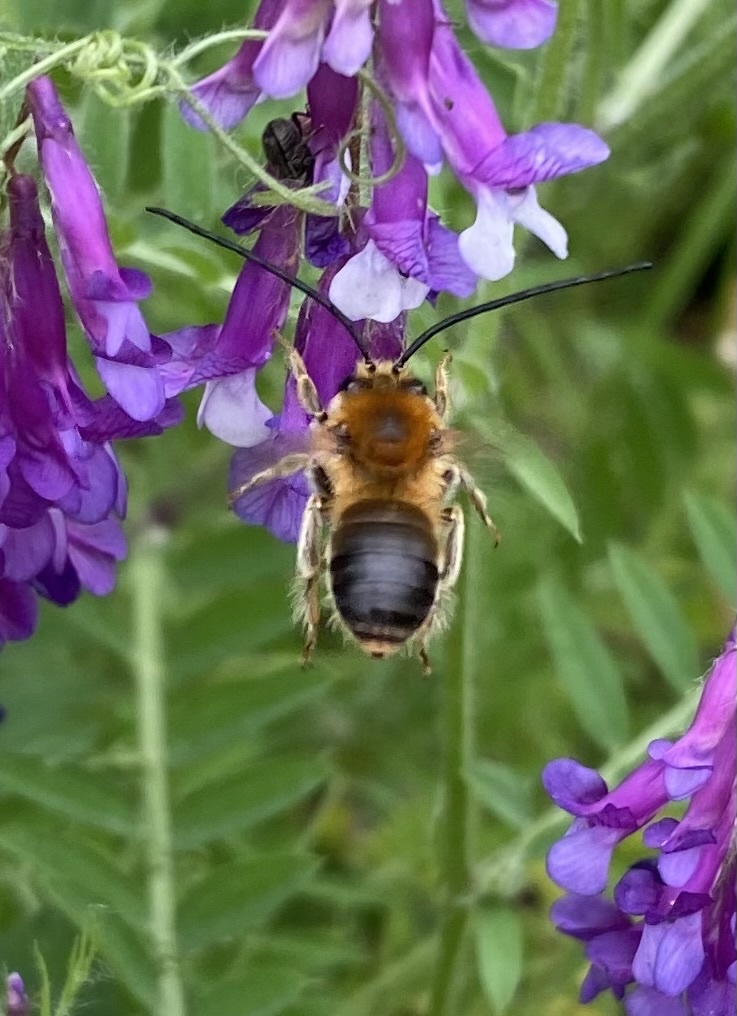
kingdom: Animalia
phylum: Arthropoda
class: Insecta
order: Hymenoptera
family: Apidae
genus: Eucera
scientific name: Eucera
